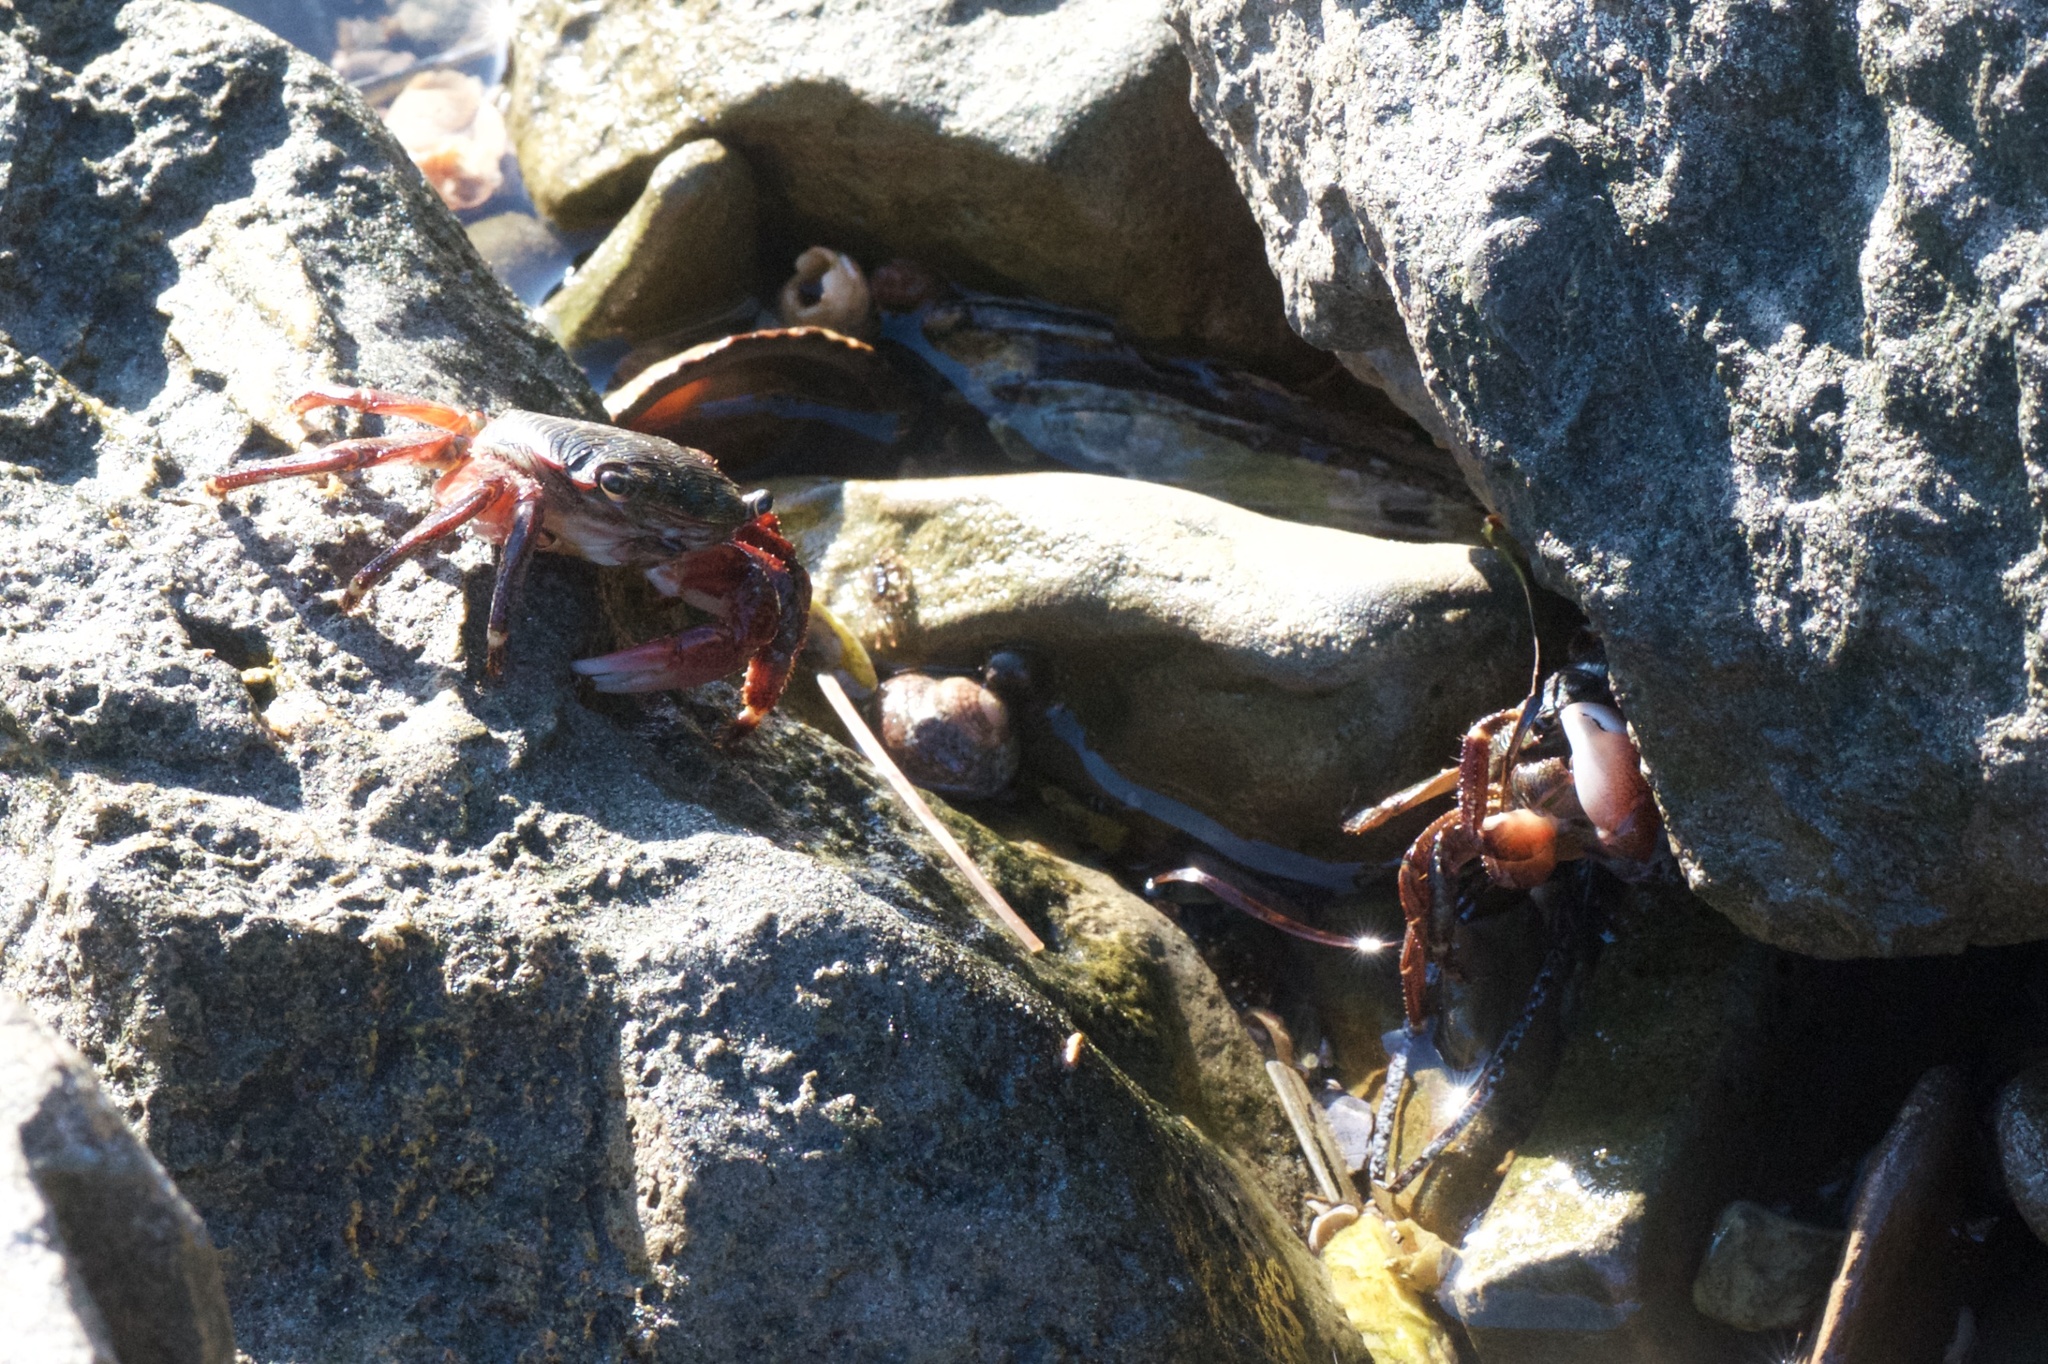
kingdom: Animalia
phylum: Arthropoda
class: Malacostraca
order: Decapoda
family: Grapsidae
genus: Pachygrapsus
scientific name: Pachygrapsus crassipes
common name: Striped shore crab
